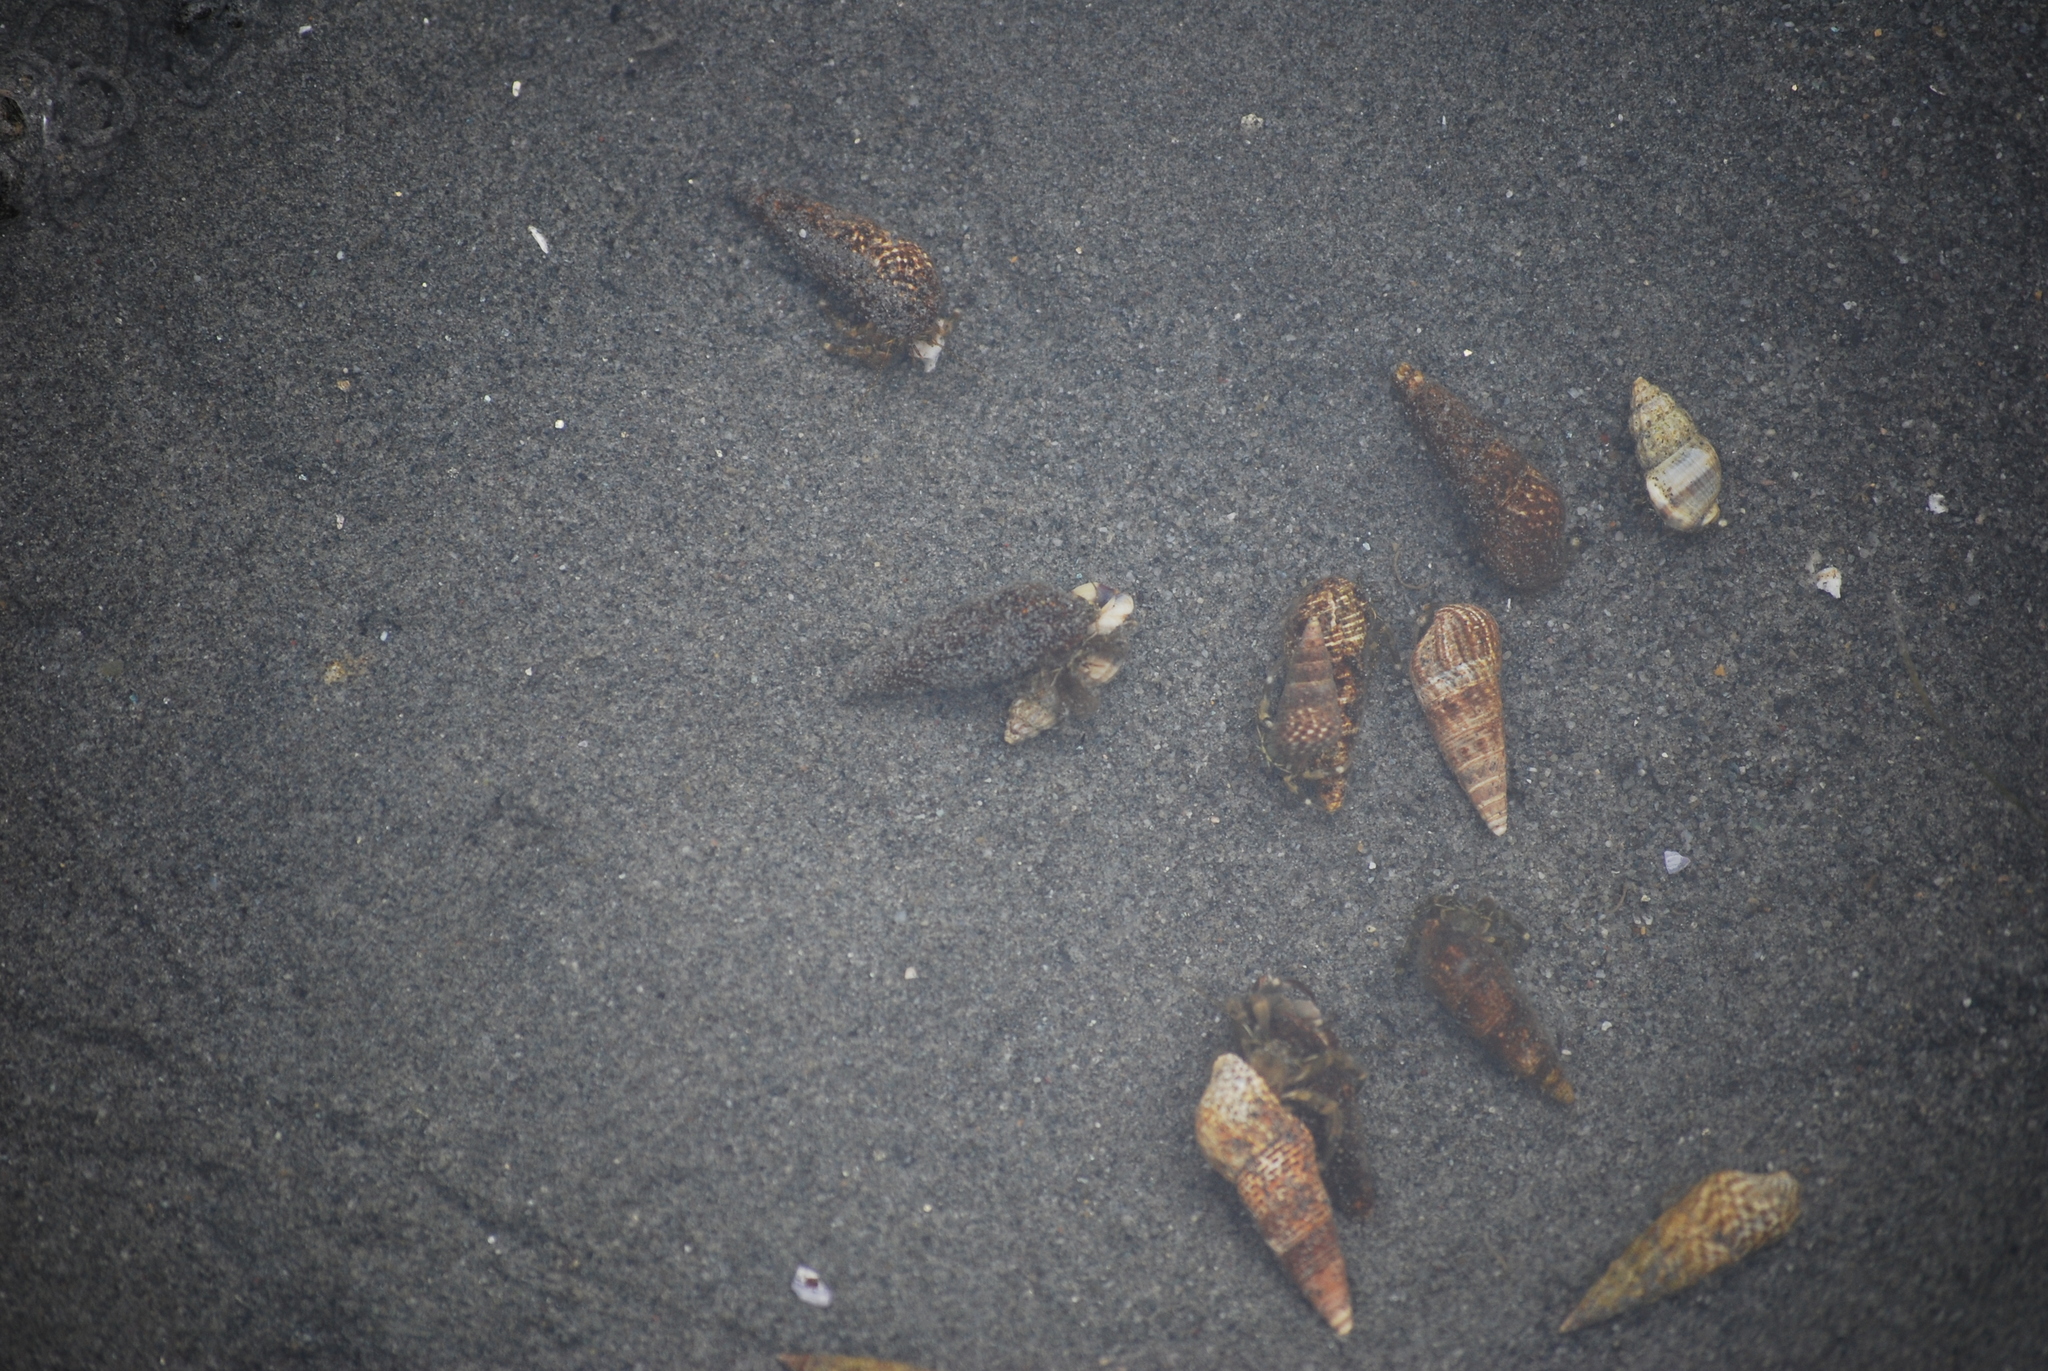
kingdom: Animalia
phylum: Mollusca
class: Gastropoda
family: Batillariidae
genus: Batillaria
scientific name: Batillaria attramentaria
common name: Japanese false cerith
